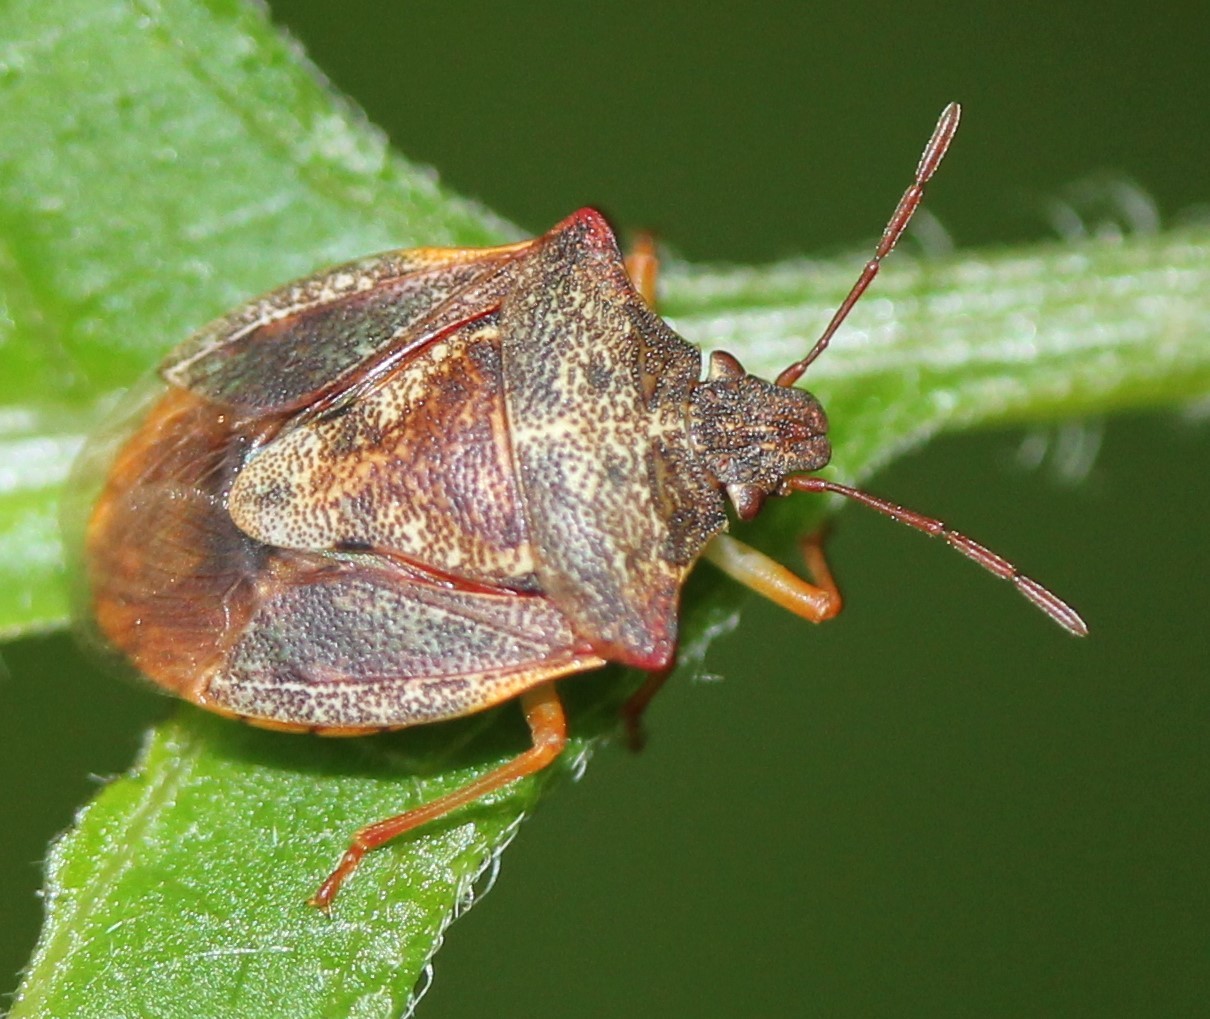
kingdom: Animalia
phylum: Arthropoda
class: Insecta
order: Hemiptera
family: Pentatomidae
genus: Dendrocoris
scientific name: Dendrocoris humeralis
